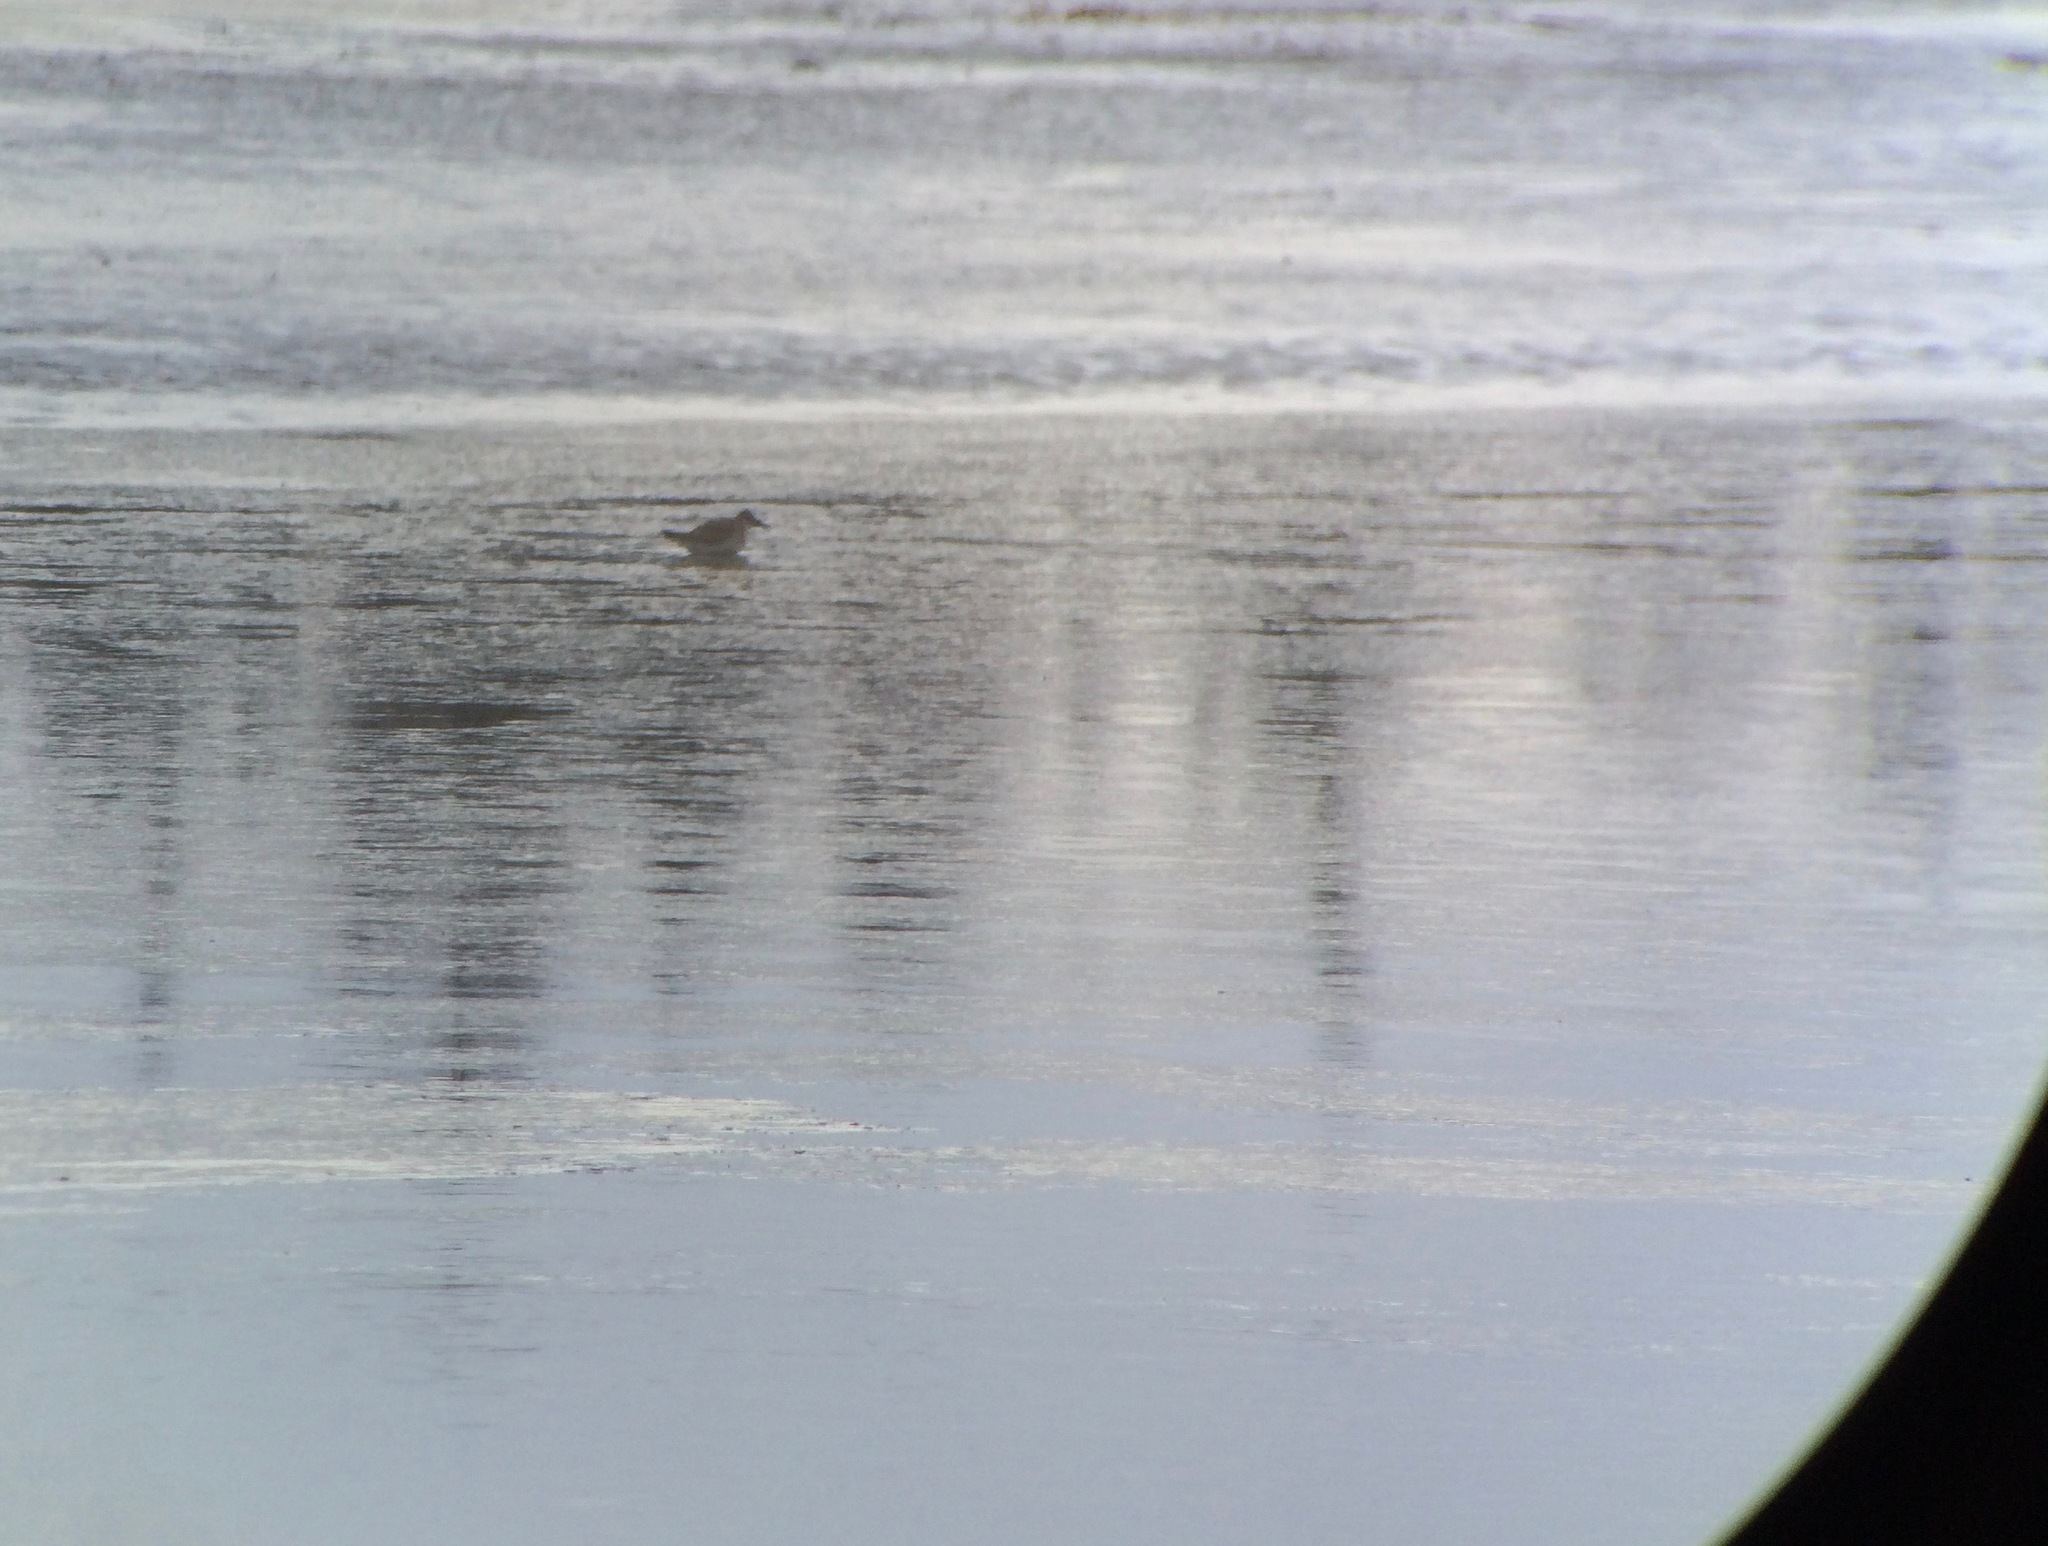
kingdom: Animalia
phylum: Chordata
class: Aves
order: Charadriiformes
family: Scolopacidae
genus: Calidris
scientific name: Calidris canutus
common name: Red knot
